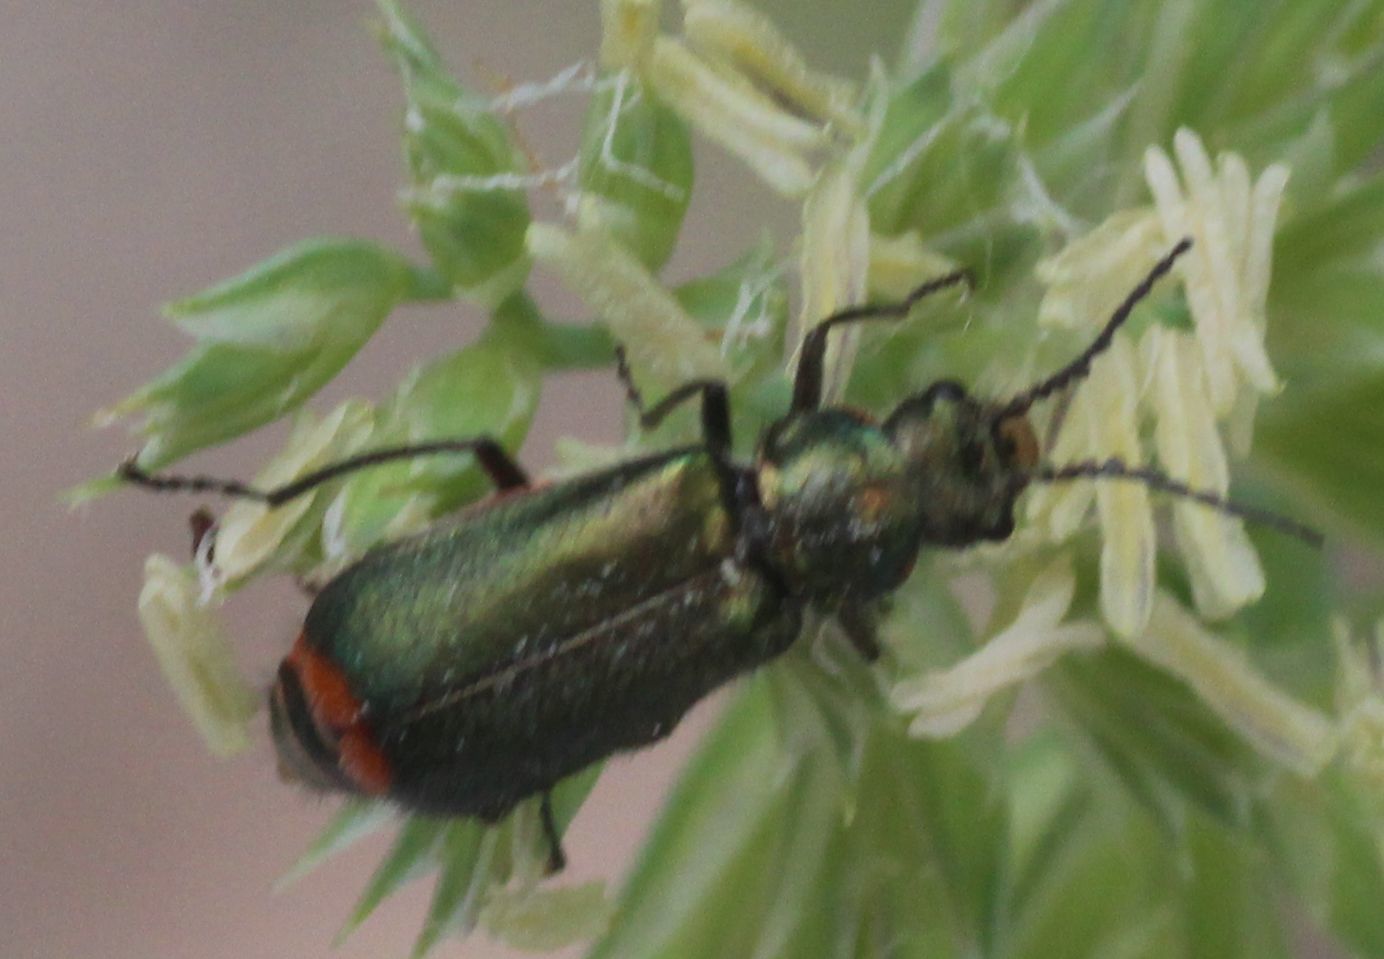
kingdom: Animalia
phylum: Arthropoda
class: Insecta
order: Coleoptera
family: Melyridae
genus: Malachius
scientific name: Malachius bipustulatus
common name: Malachite beetle
